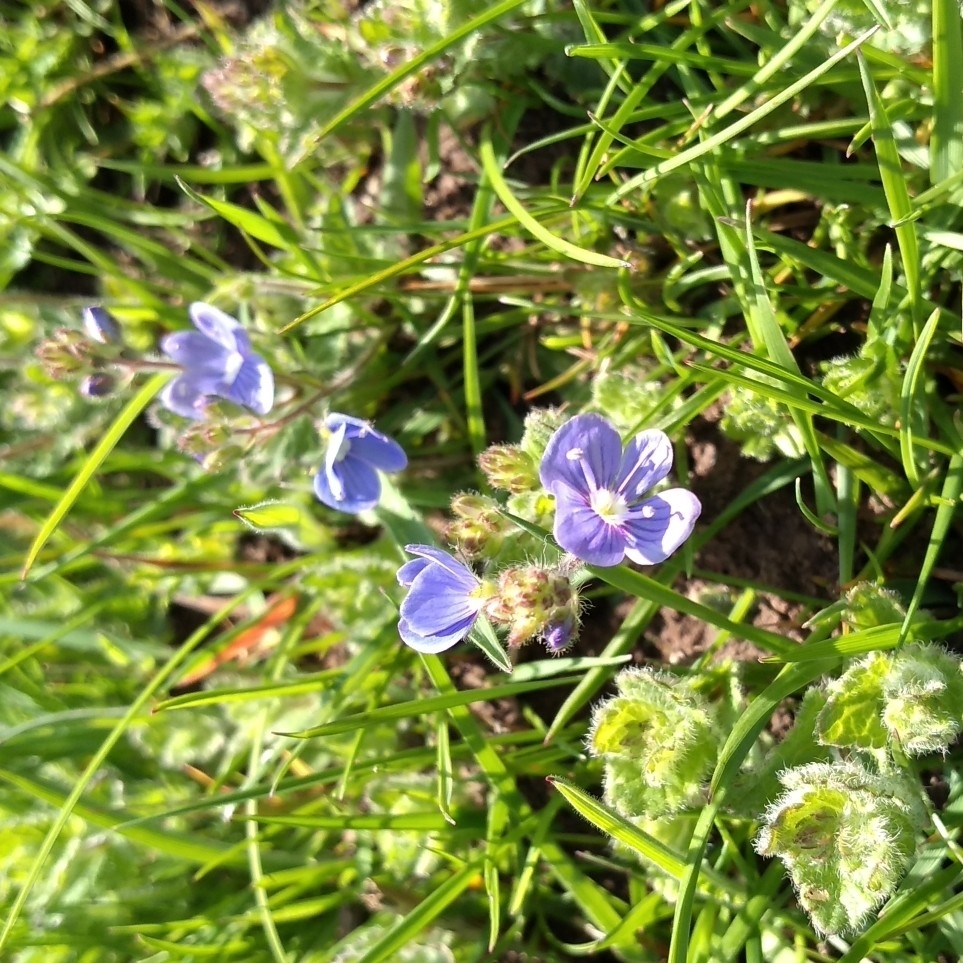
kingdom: Plantae
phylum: Tracheophyta
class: Magnoliopsida
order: Lamiales
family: Plantaginaceae
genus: Veronica
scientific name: Veronica chamaedrys
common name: Germander speedwell
